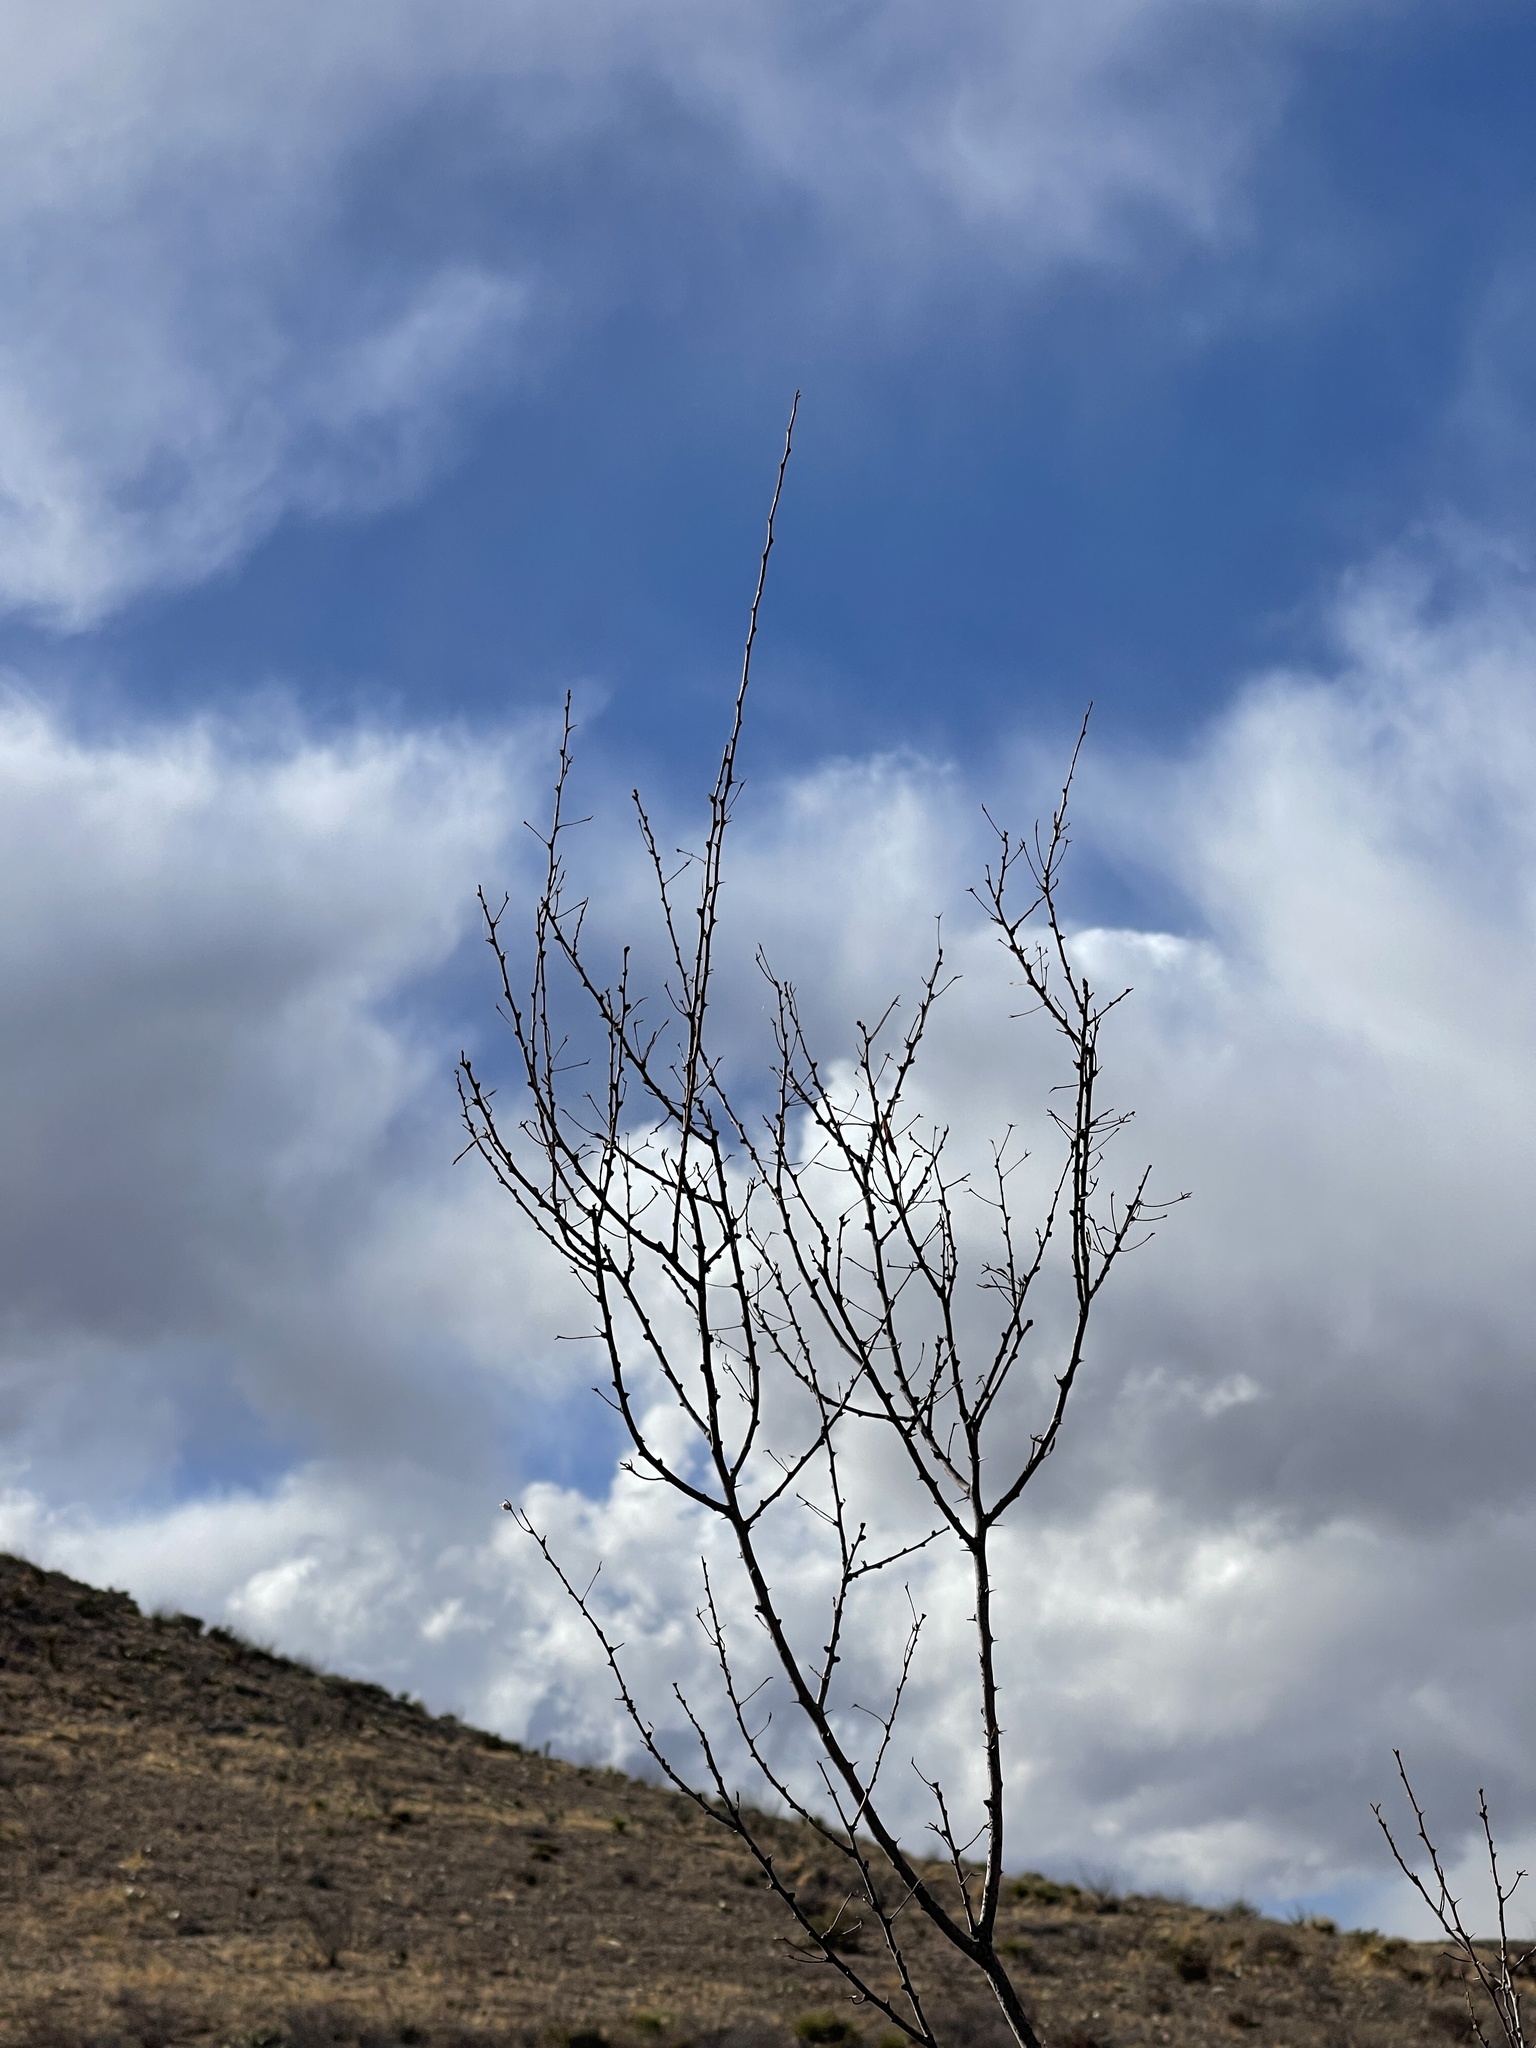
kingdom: Plantae
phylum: Tracheophyta
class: Magnoliopsida
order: Fabales
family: Fabaceae
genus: Vachellia
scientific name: Vachellia constricta
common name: Mescat acacia
